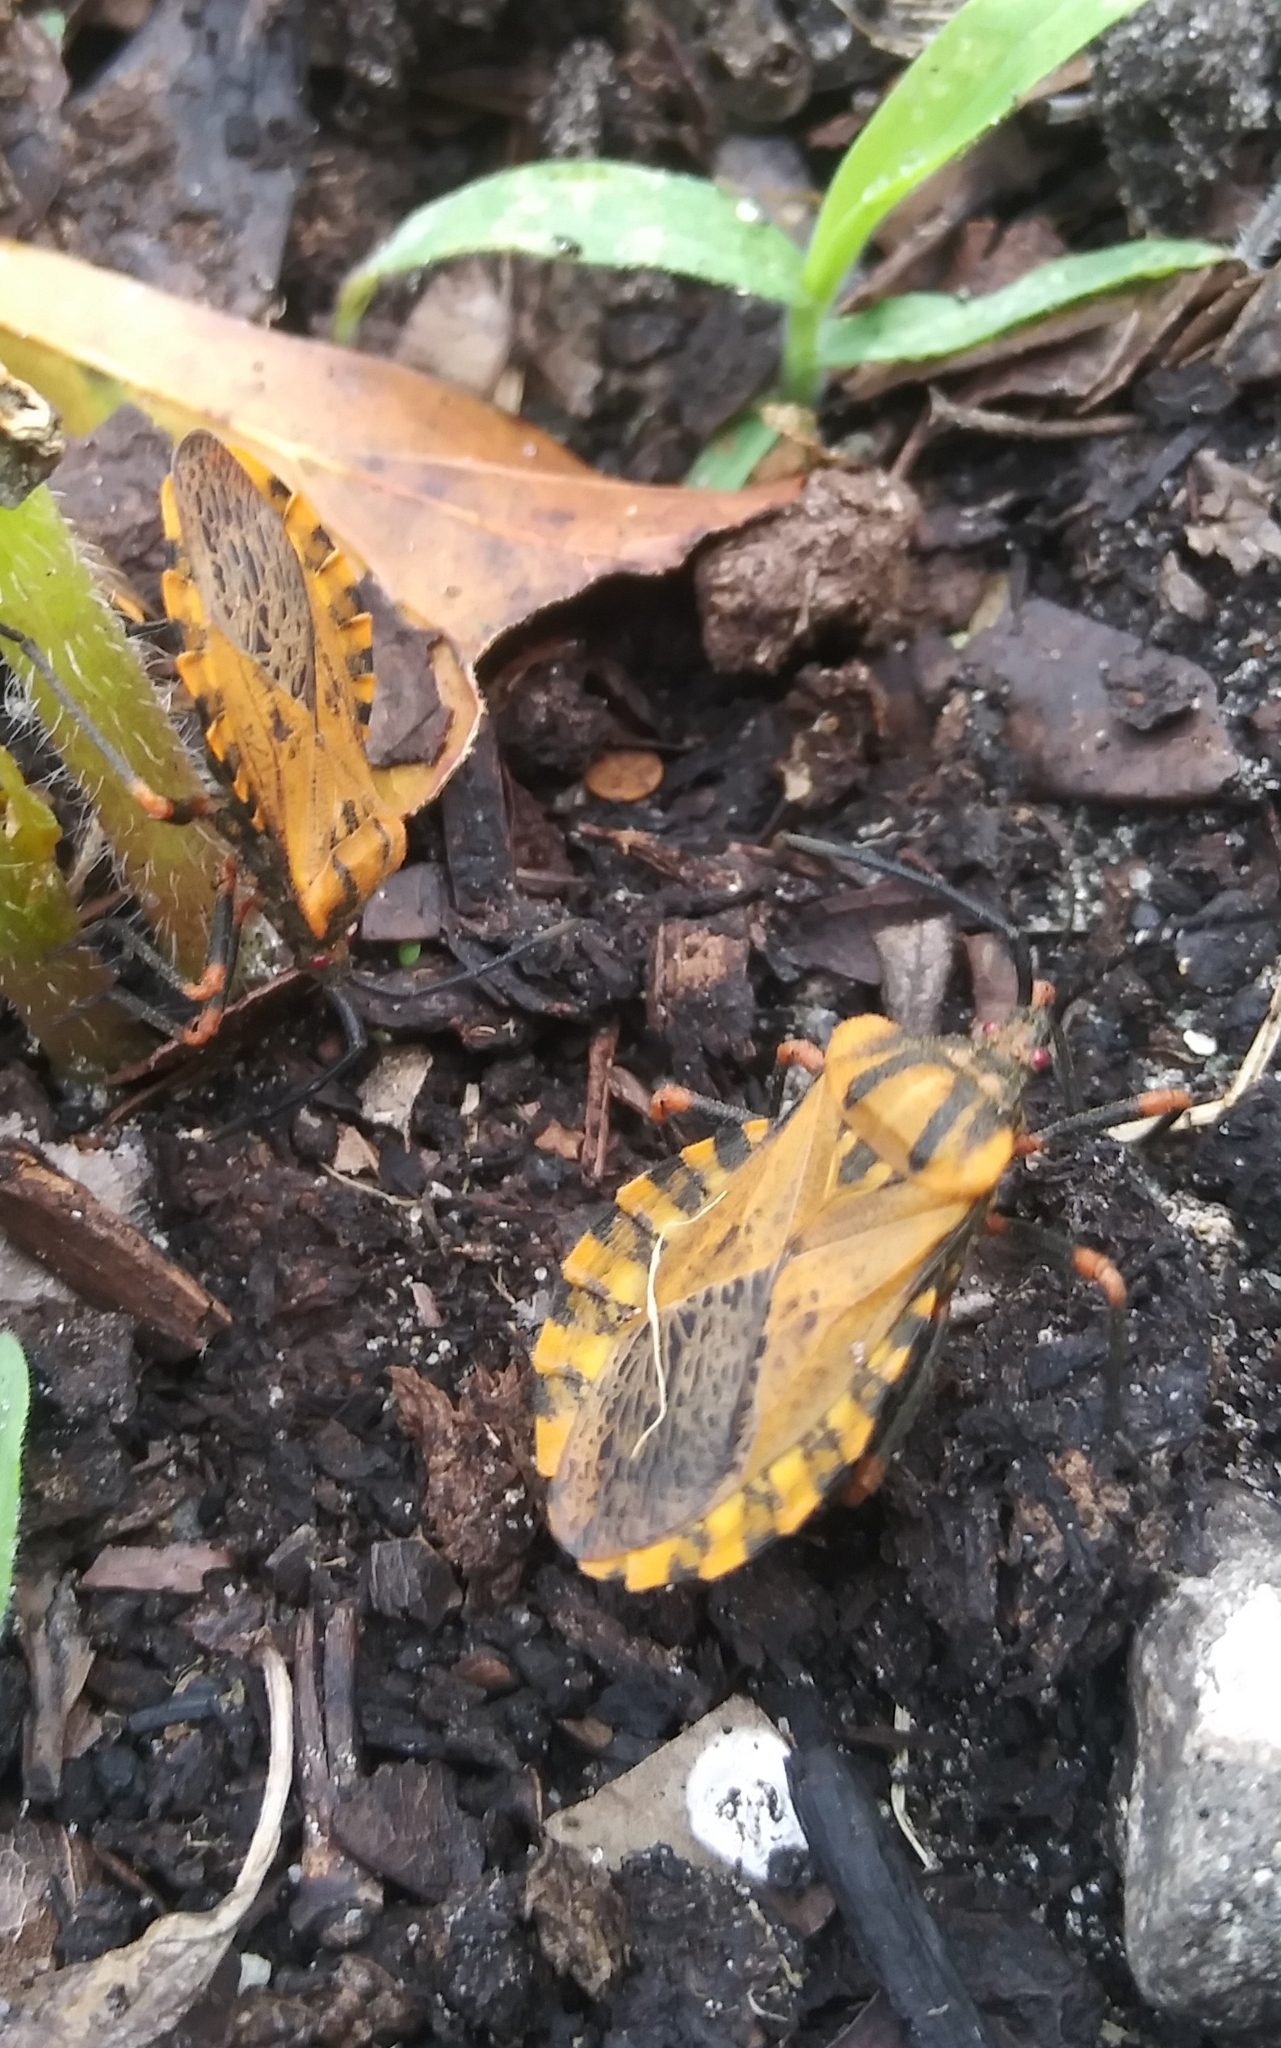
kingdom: Animalia
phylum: Arthropoda
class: Insecta
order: Hemiptera
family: Coreidae
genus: Spartocera
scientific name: Spartocera fusca
